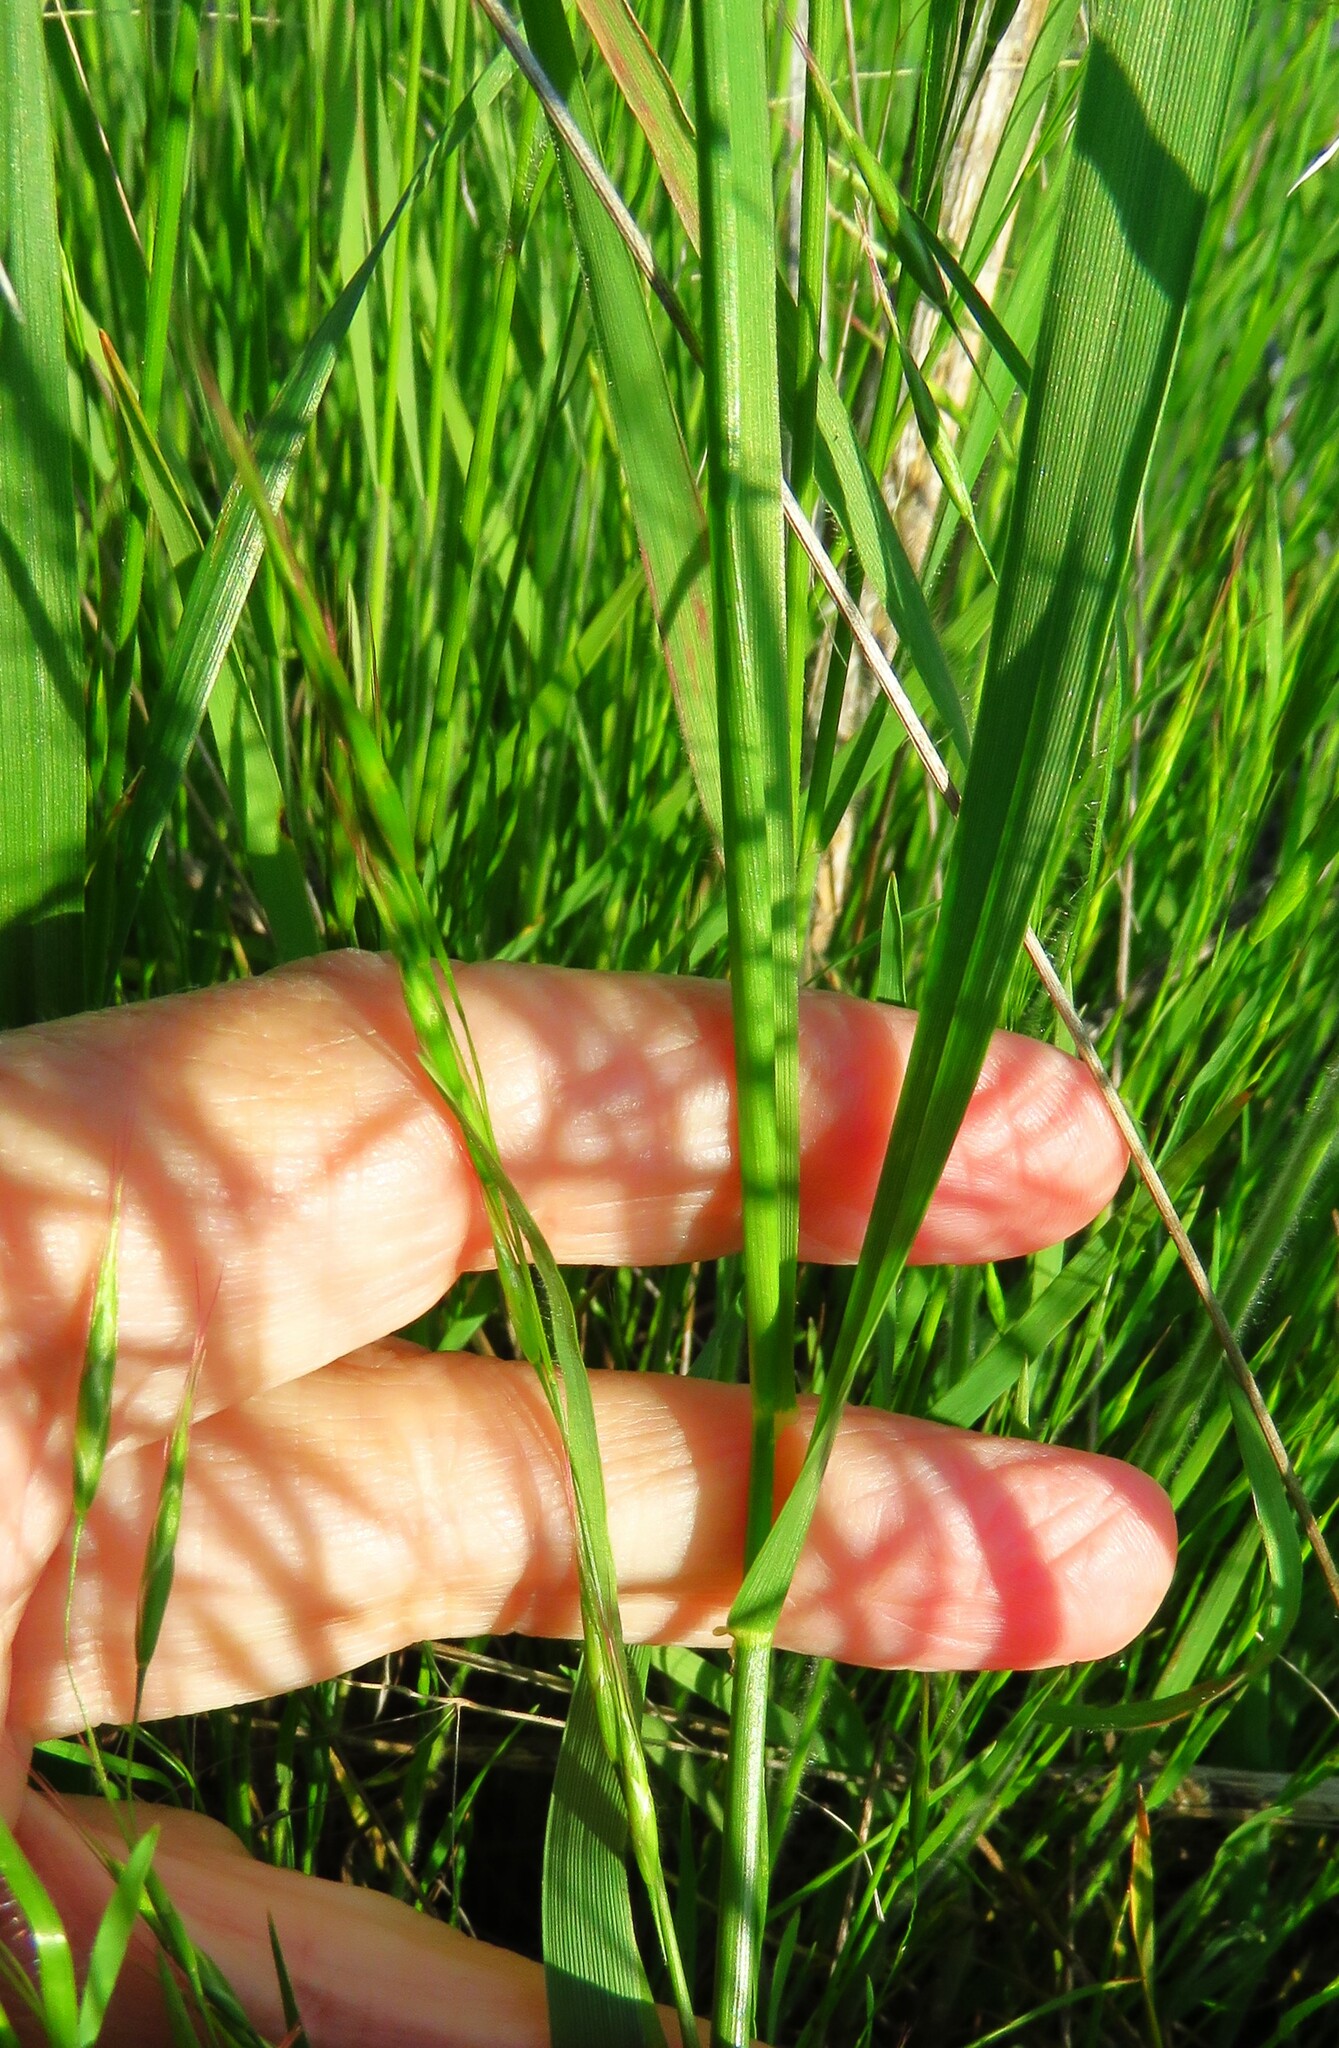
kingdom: Plantae
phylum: Tracheophyta
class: Liliopsida
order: Poales
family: Poaceae
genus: Bromus
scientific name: Bromus japonicus
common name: Japanese brome
